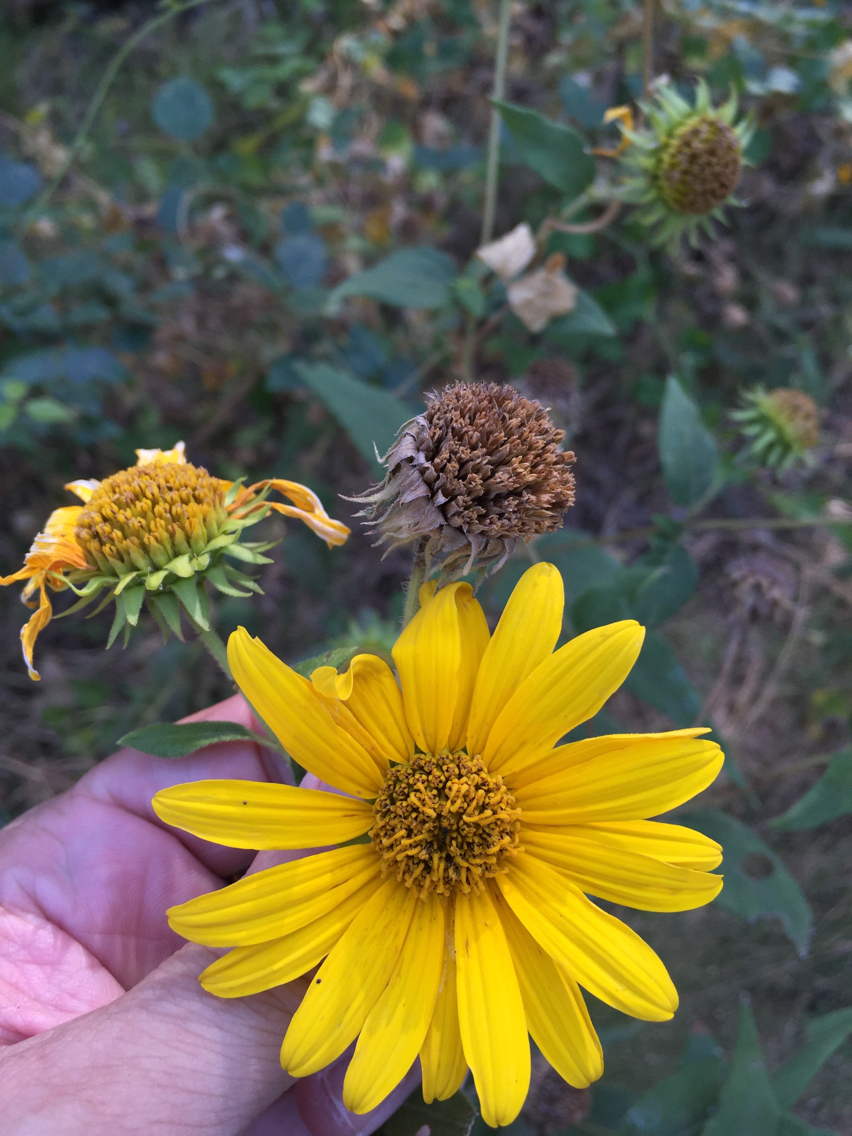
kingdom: Plantae
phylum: Tracheophyta
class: Magnoliopsida
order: Asterales
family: Asteraceae
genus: Helianthus
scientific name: Helianthus hirsutus
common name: Hairy sunflower
